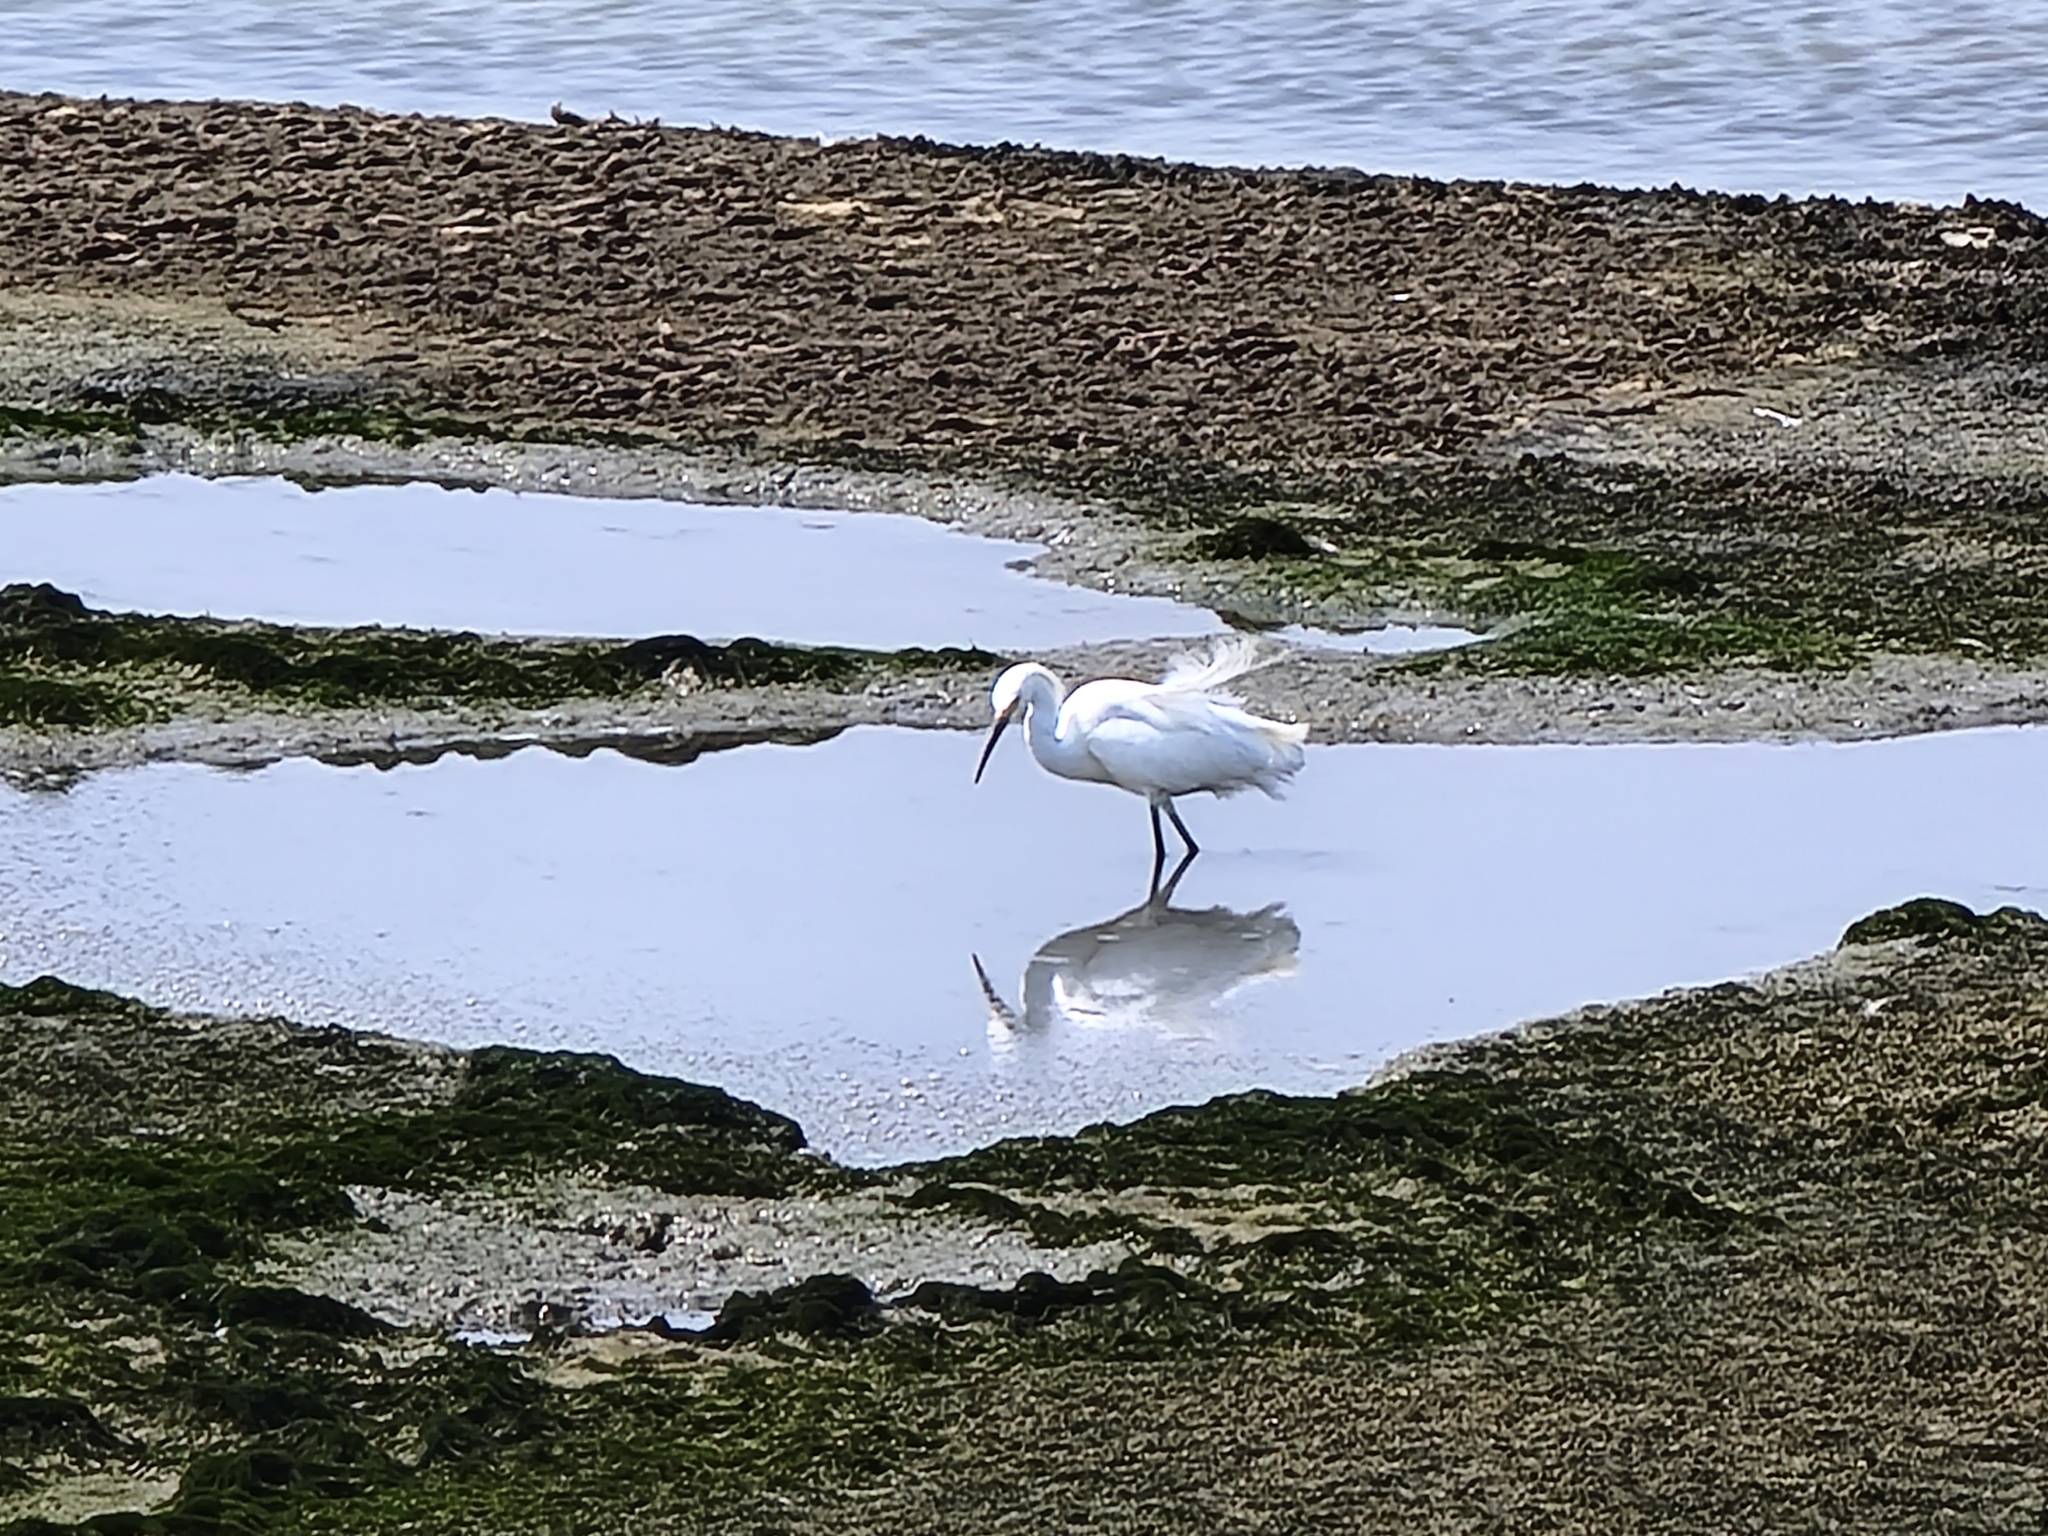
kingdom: Animalia
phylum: Chordata
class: Aves
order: Pelecaniformes
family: Ardeidae
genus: Egretta
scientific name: Egretta thula
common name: Snowy egret
